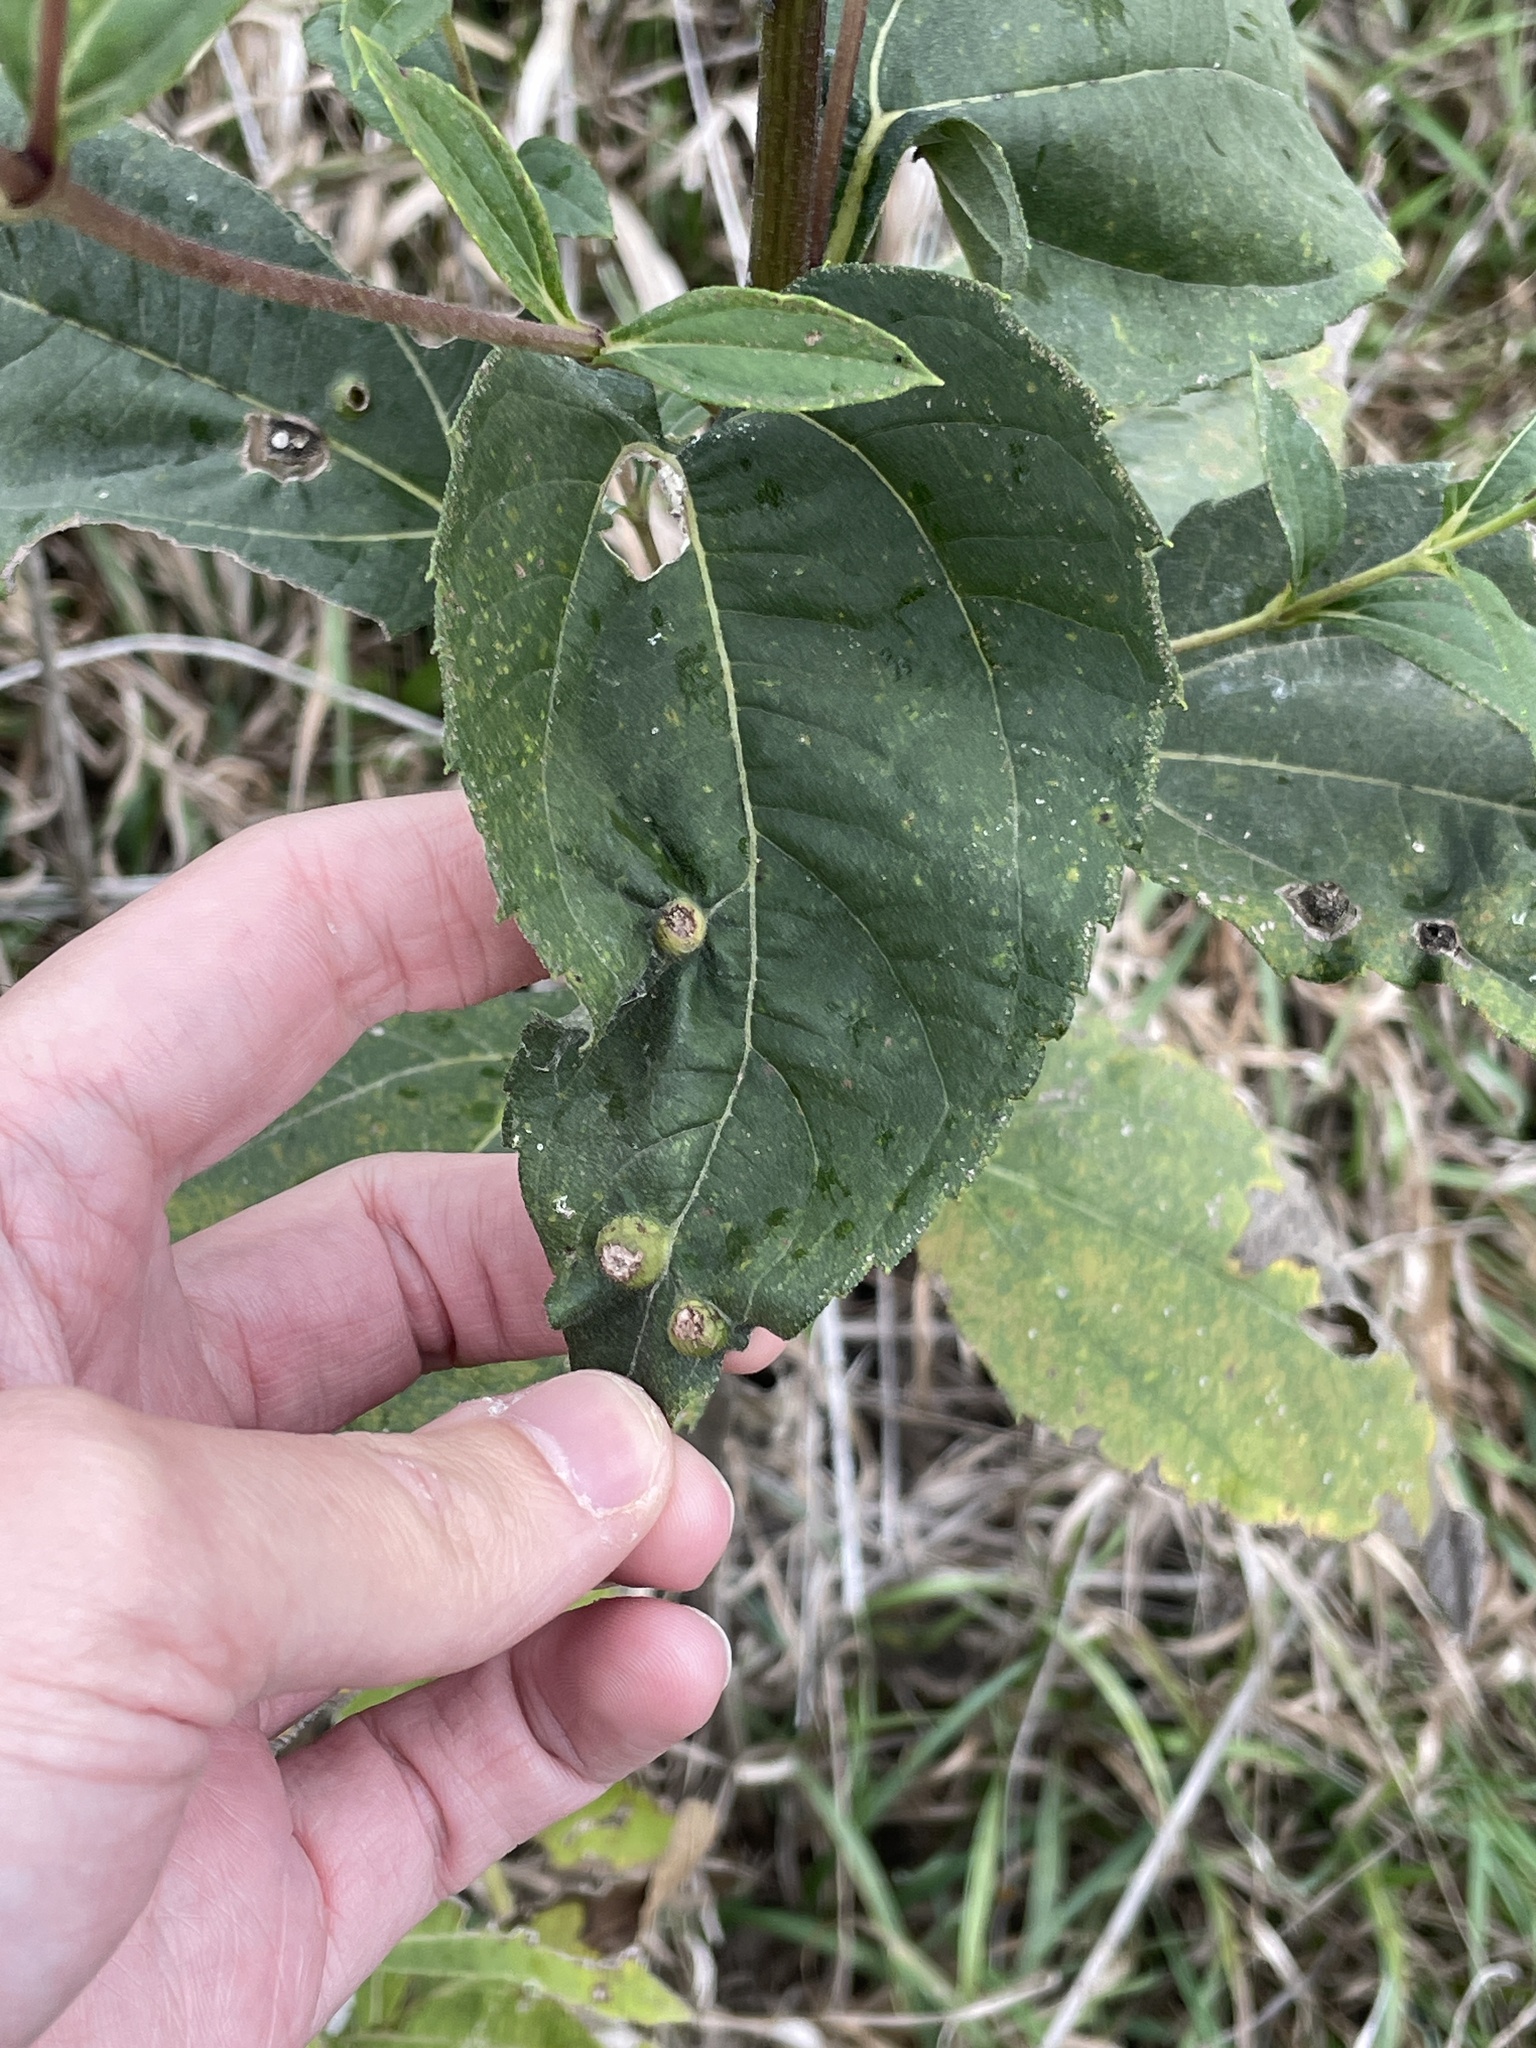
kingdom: Animalia
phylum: Arthropoda
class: Insecta
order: Diptera
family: Cecidomyiidae
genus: Pilodiplosis
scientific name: Pilodiplosis helianthibulla
